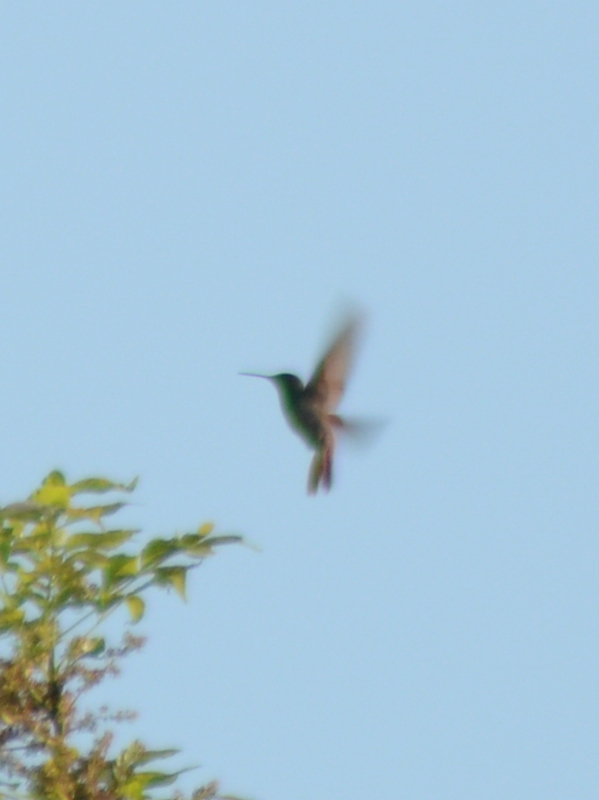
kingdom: Animalia
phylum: Chordata
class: Aves
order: Apodiformes
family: Trochilidae
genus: Saucerottia
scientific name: Saucerottia beryllina
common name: Berylline hummingbird
